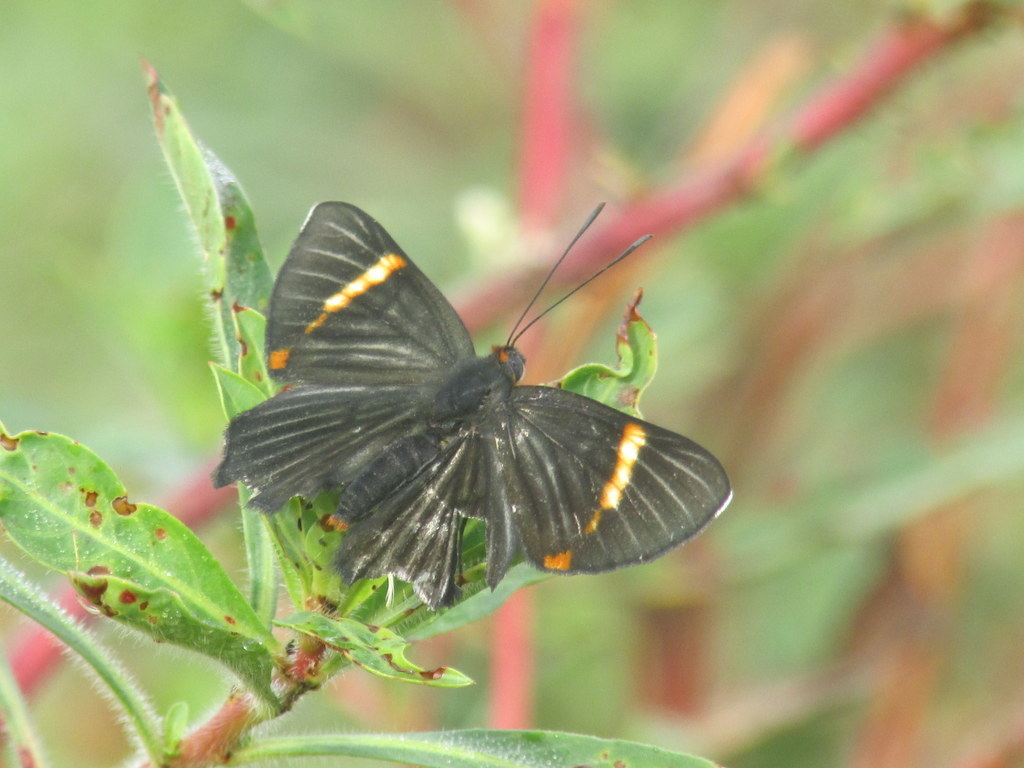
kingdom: Animalia
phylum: Arthropoda
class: Insecta
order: Lepidoptera
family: Riodinidae
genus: Riodina
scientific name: Riodina lycisca
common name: Lycisca metalmark
